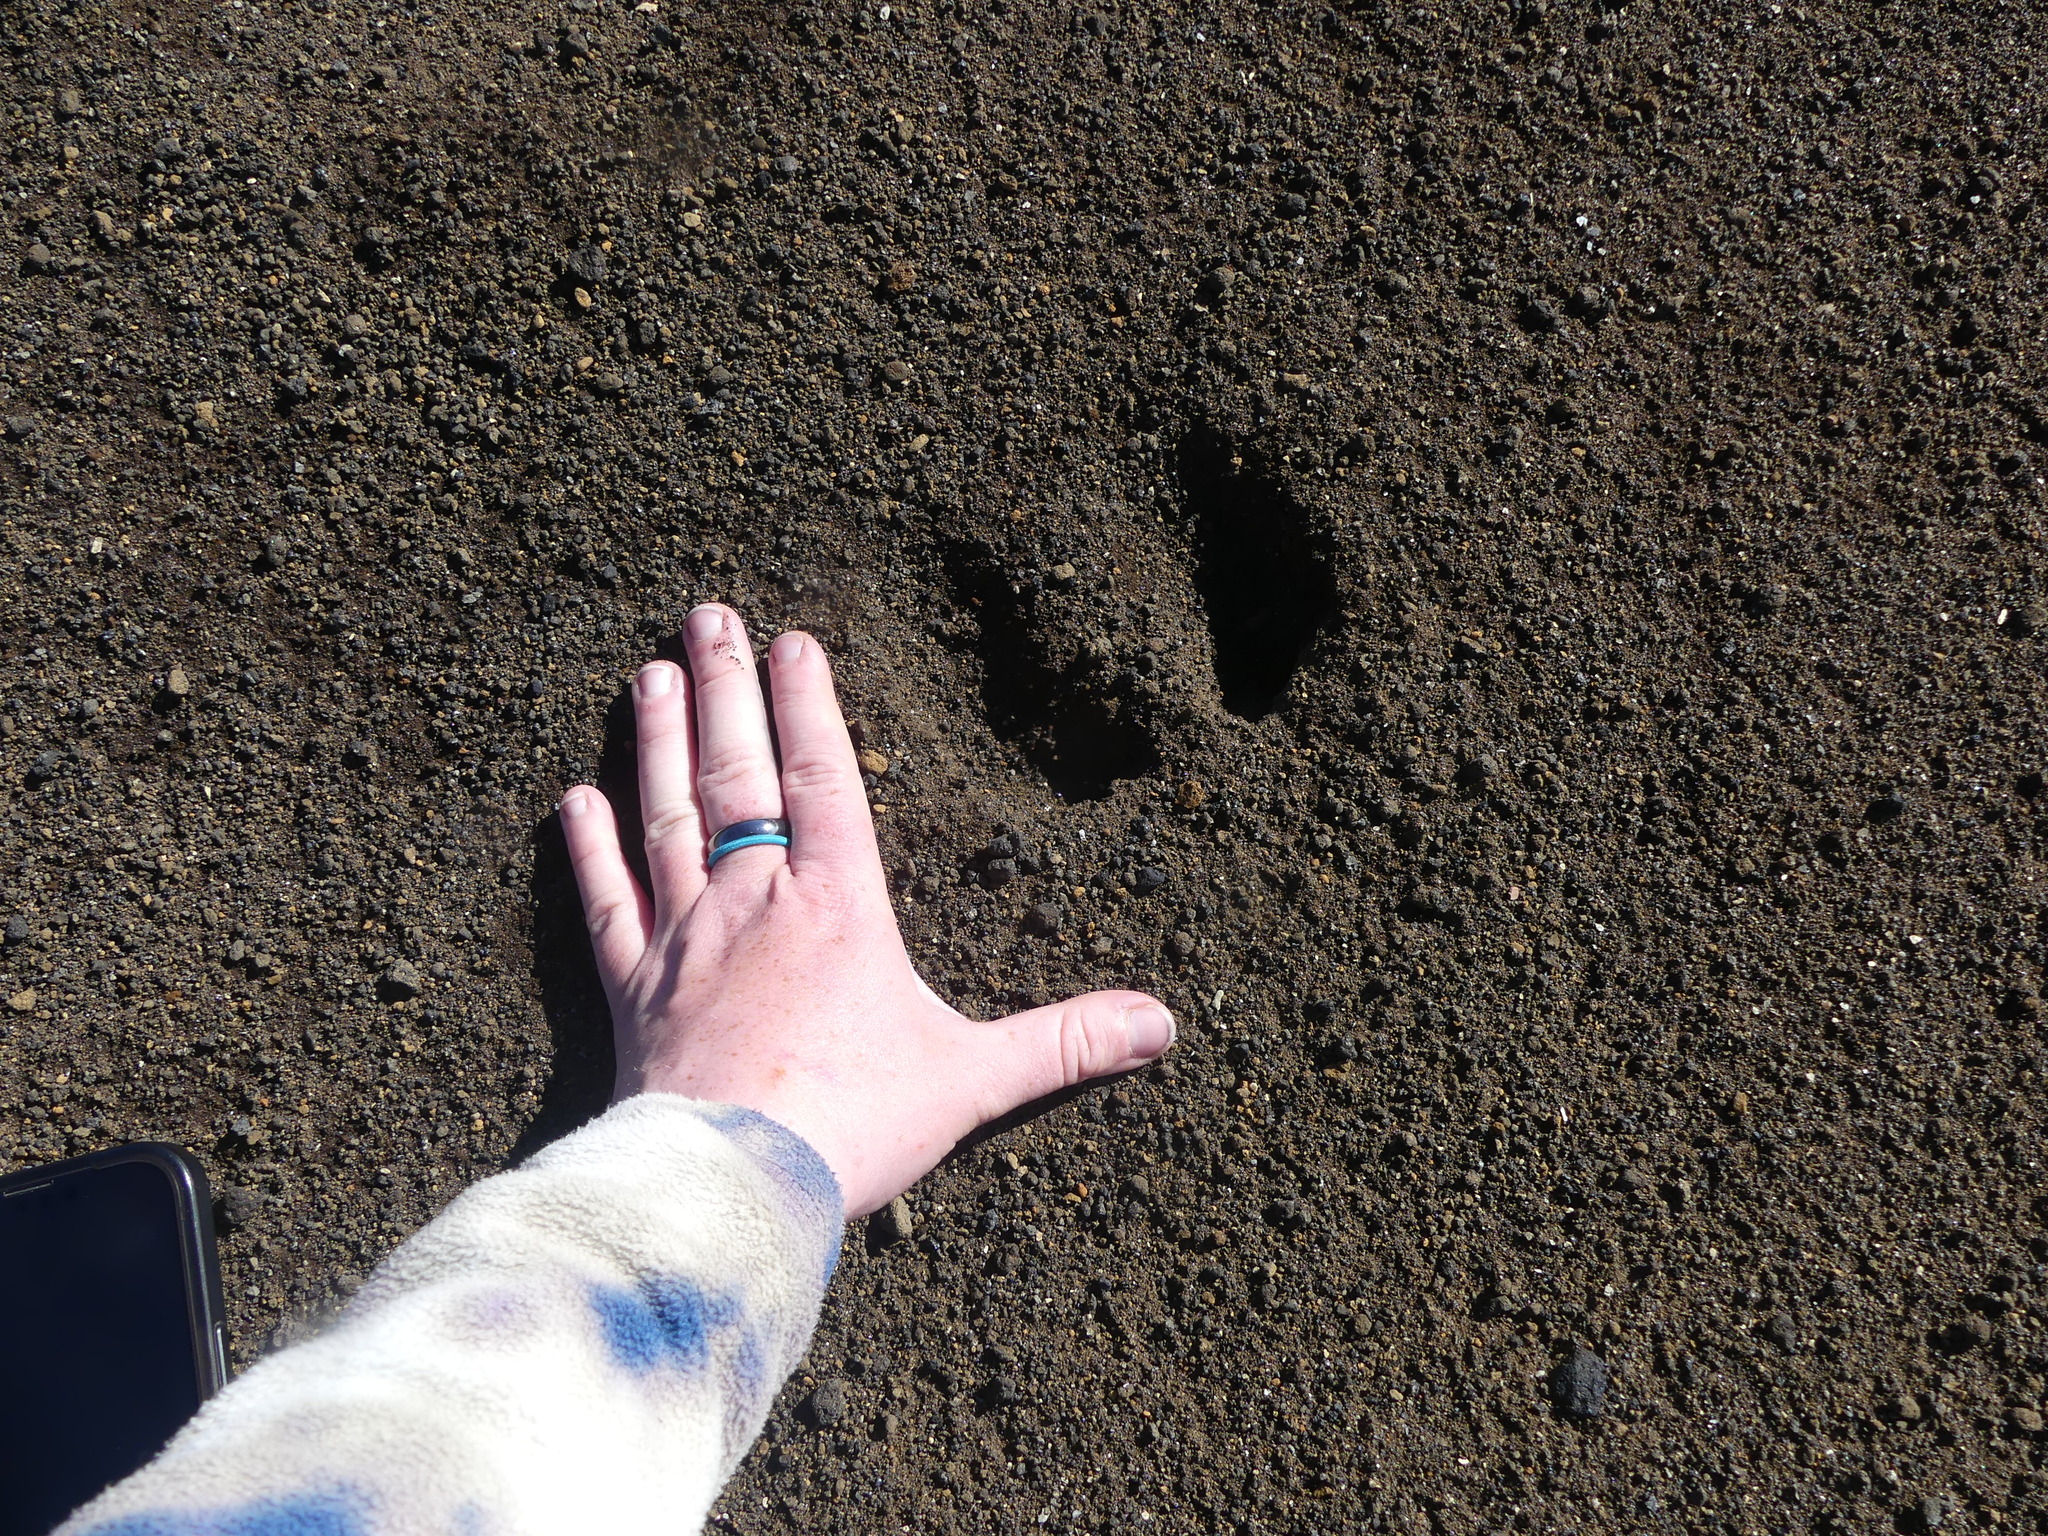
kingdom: Animalia
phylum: Chordata
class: Mammalia
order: Artiodactyla
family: Cervidae
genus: Rangifer
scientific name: Rangifer tarandus
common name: Reindeer
